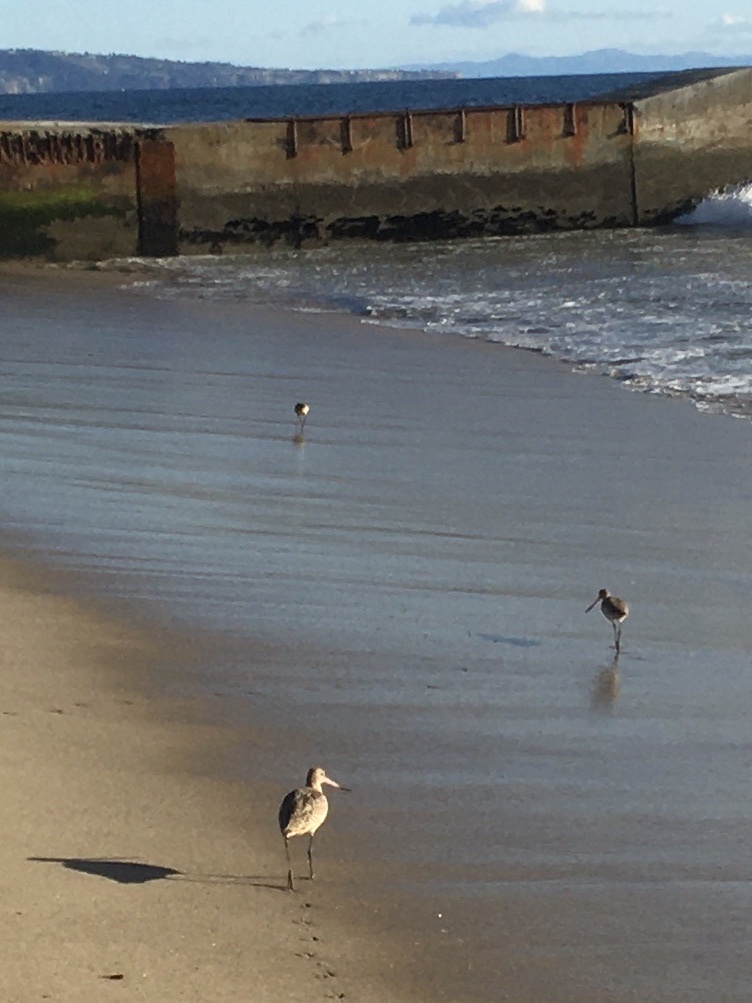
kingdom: Animalia
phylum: Chordata
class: Aves
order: Charadriiformes
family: Scolopacidae
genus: Limosa
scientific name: Limosa fedoa
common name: Marbled godwit
